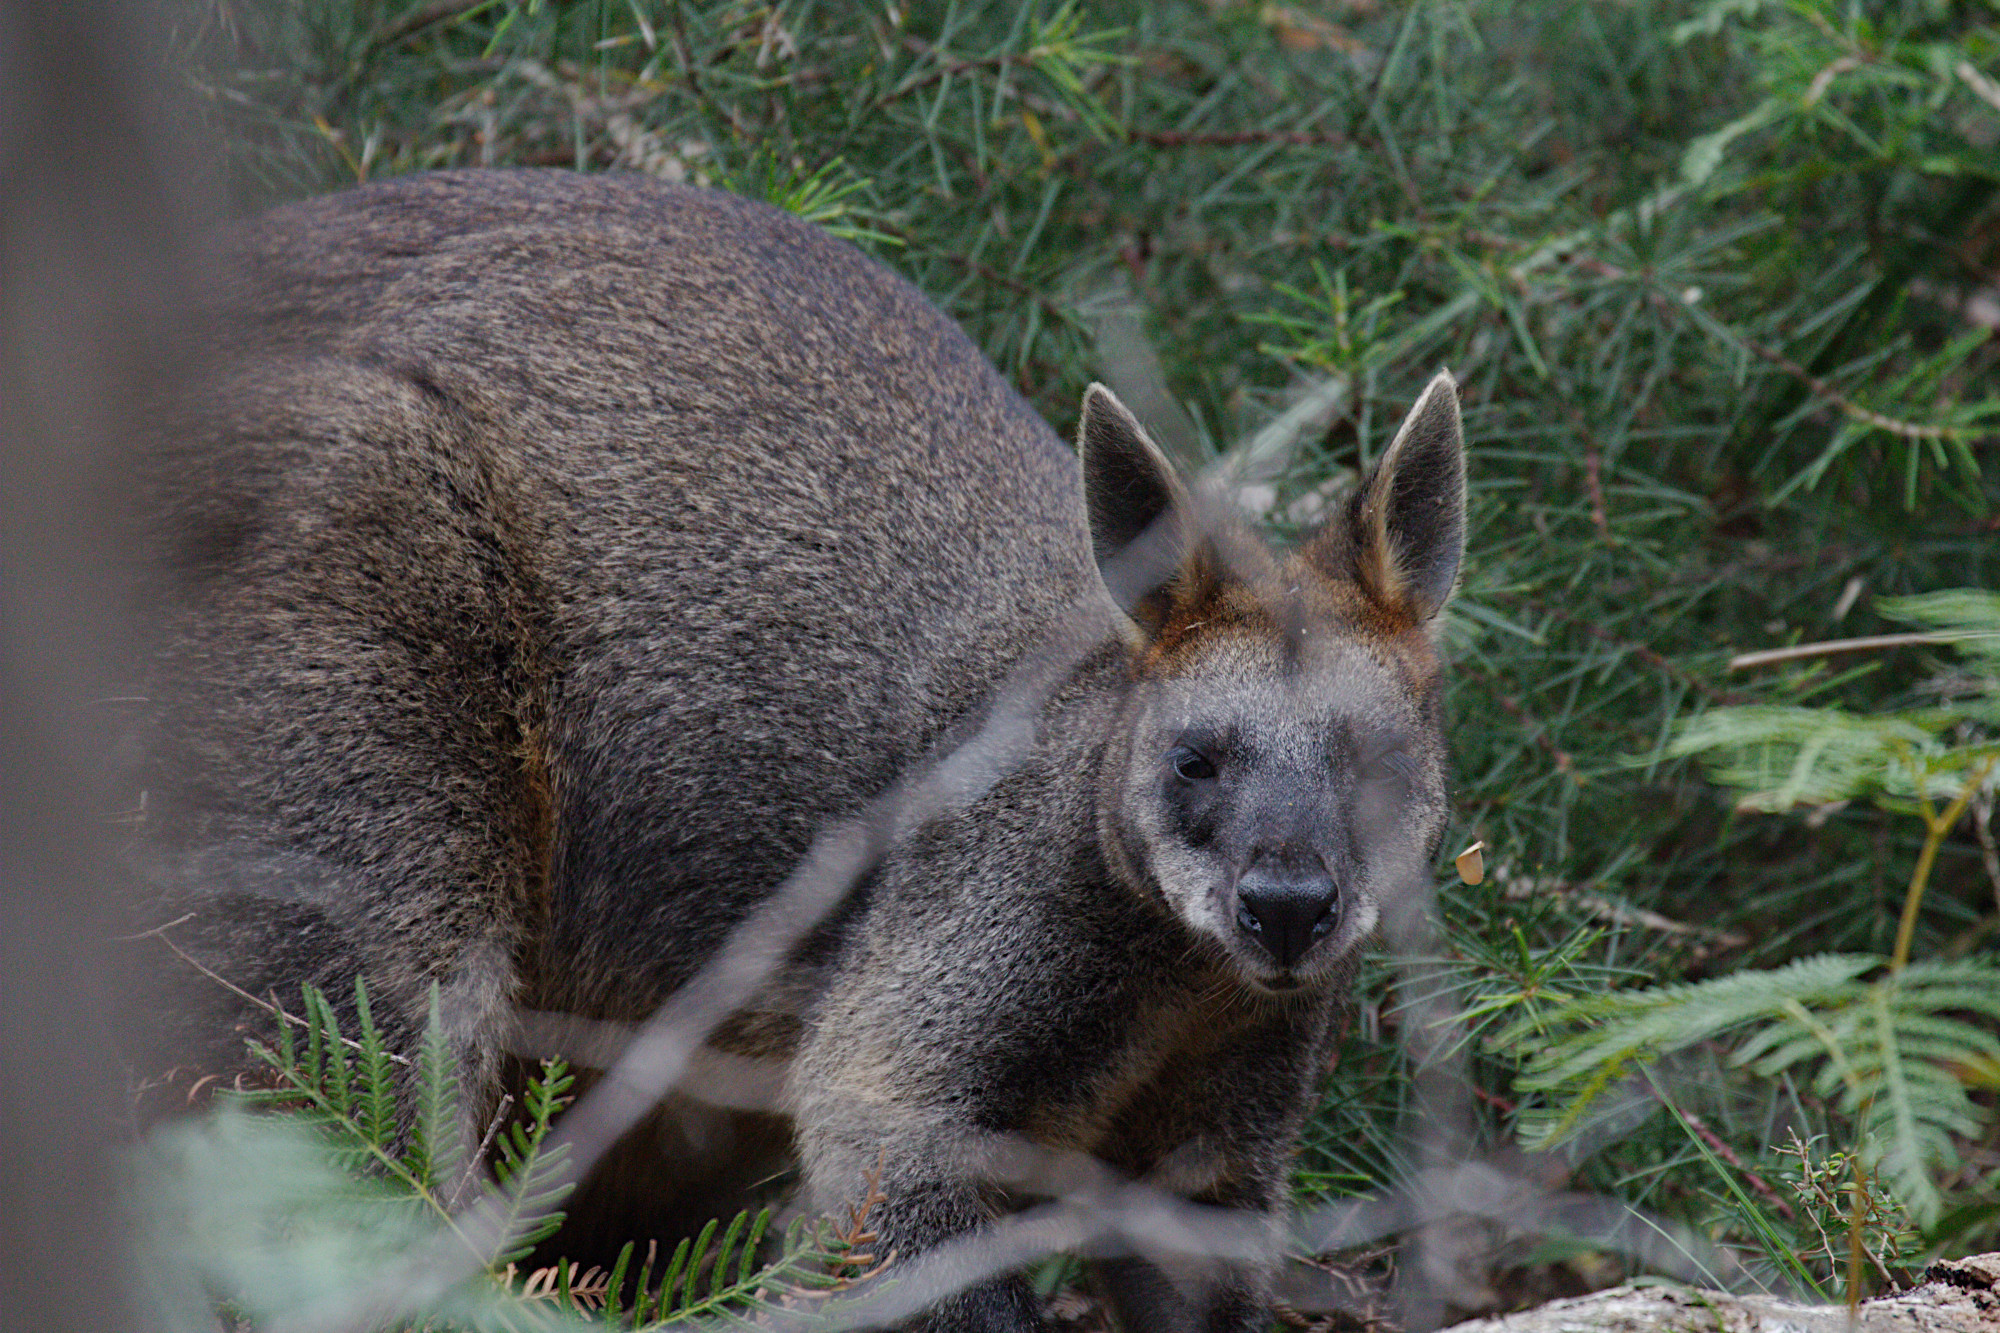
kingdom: Animalia
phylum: Chordata
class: Mammalia
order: Diprotodontia
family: Macropodidae
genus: Wallabia
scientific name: Wallabia bicolor
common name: Swamp wallaby
